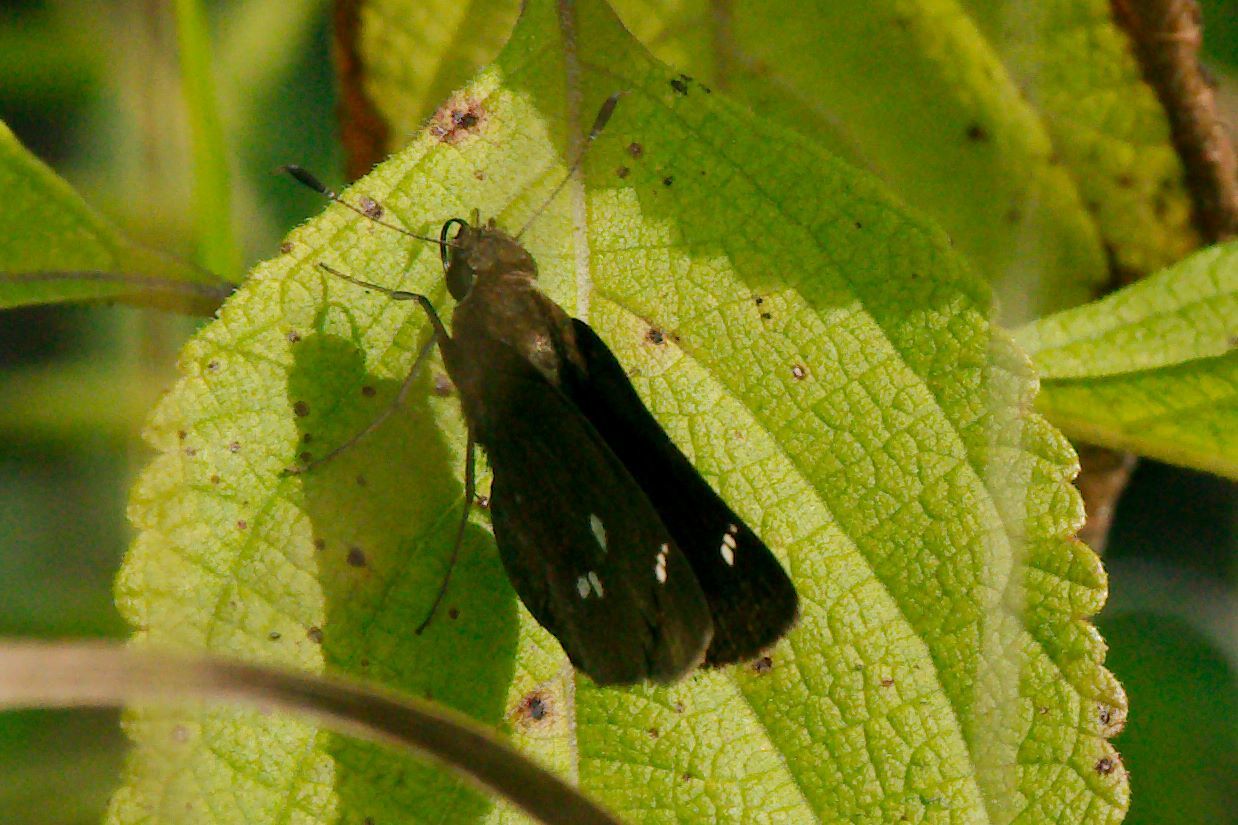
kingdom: Animalia
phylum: Arthropoda
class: Insecta
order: Lepidoptera
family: Hesperiidae
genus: Oligoria
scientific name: Oligoria maculata
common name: Twin-spot skipper
